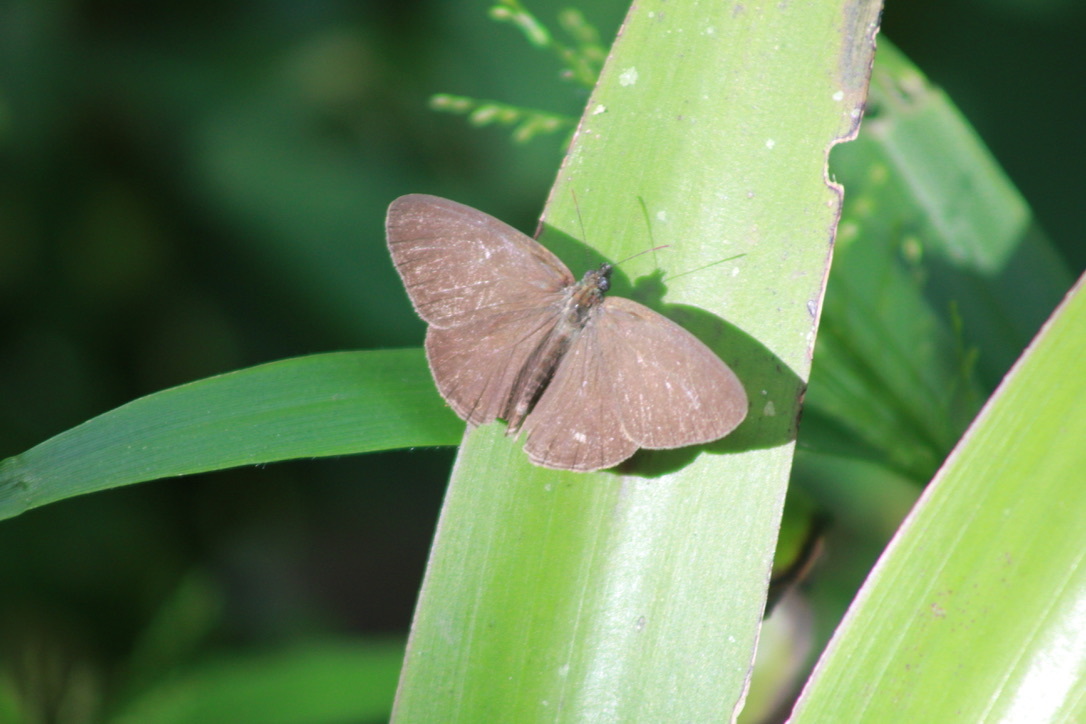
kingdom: Animalia
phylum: Arthropoda
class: Insecta
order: Lepidoptera
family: Nymphalidae
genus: Hermeuptychia
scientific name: Hermeuptychia canthe
